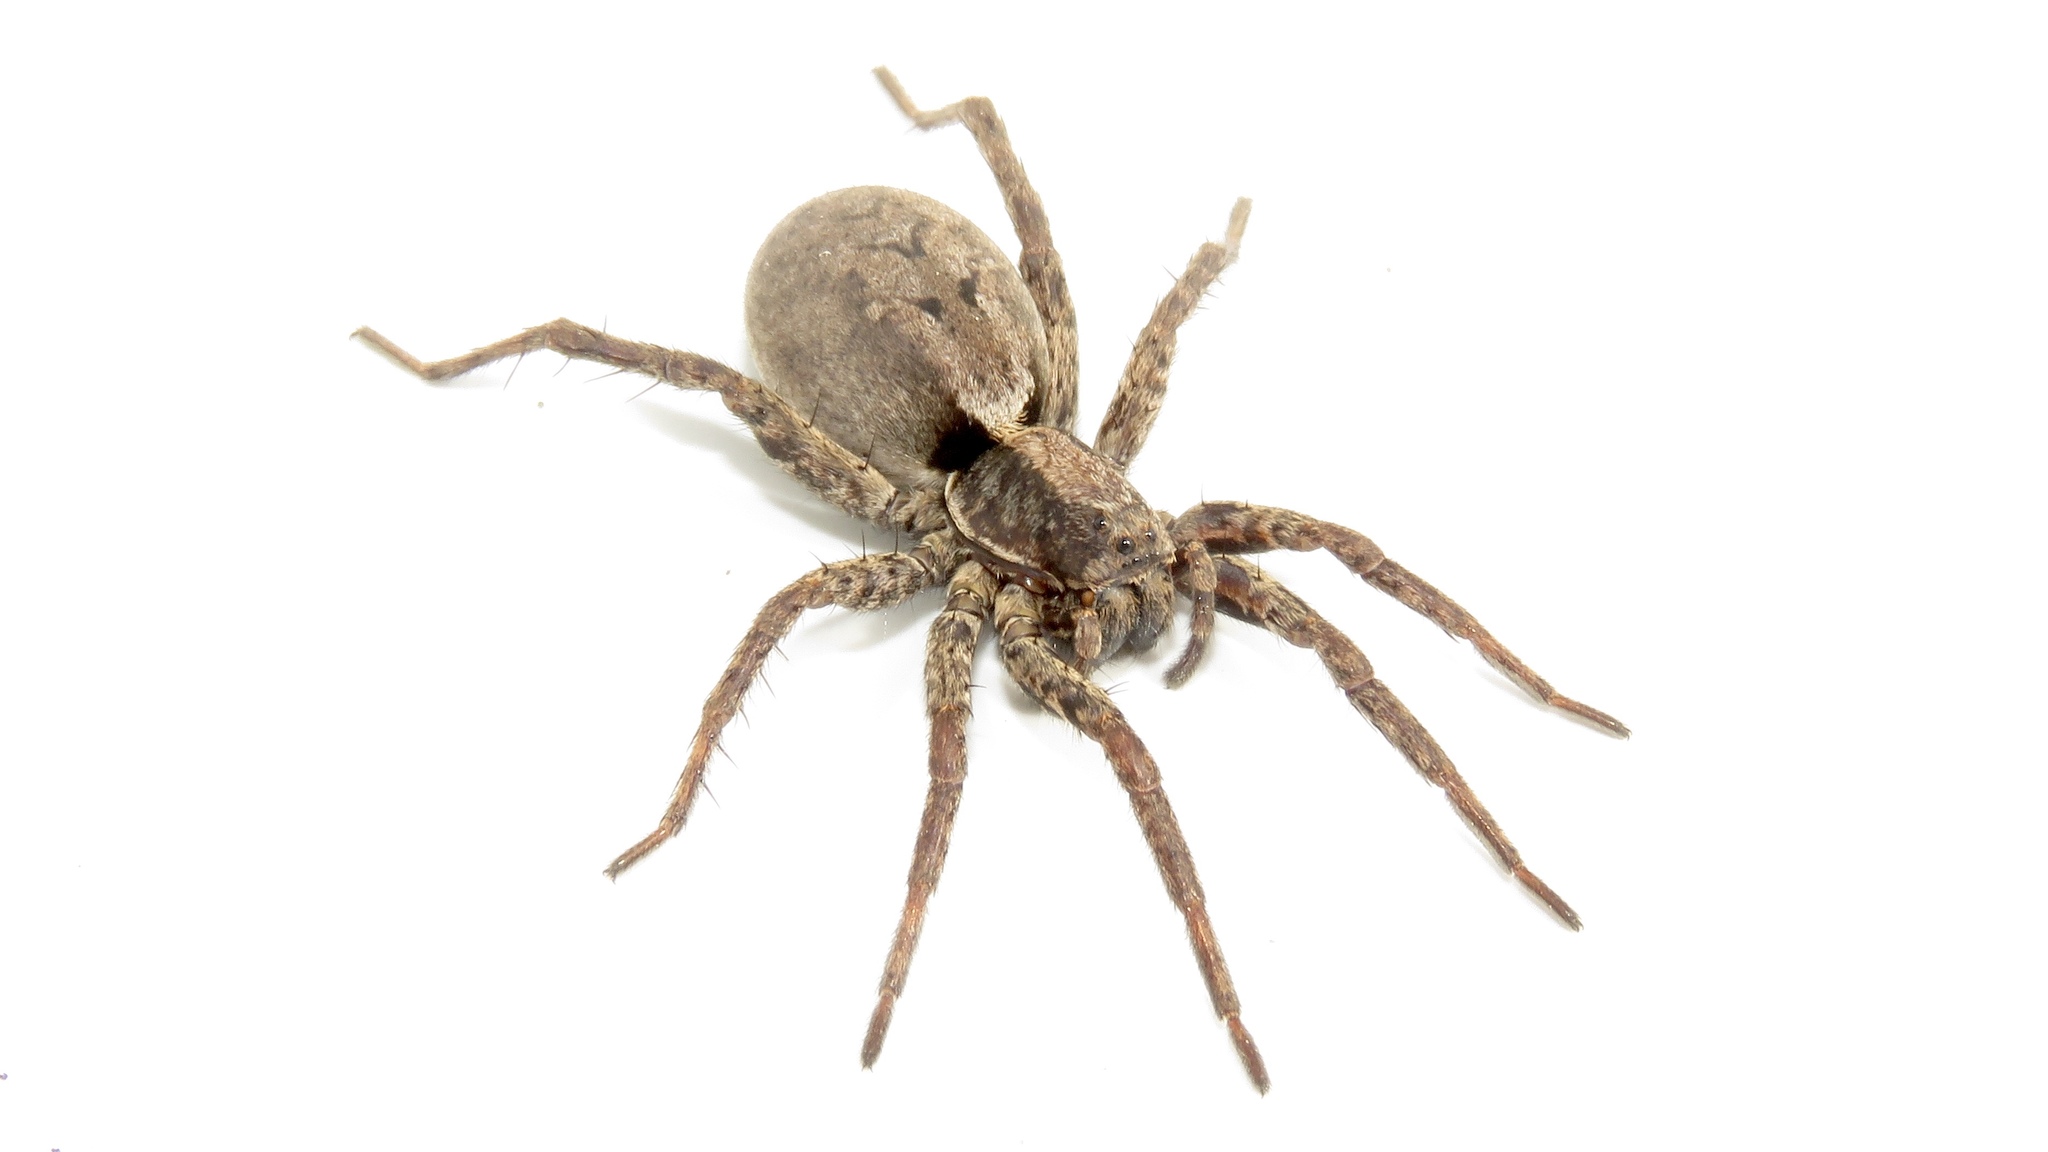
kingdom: Animalia
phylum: Arthropoda
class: Arachnida
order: Araneae
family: Lycosidae
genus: Hogna
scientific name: Hogna frondicola
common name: Forest wolf spider
